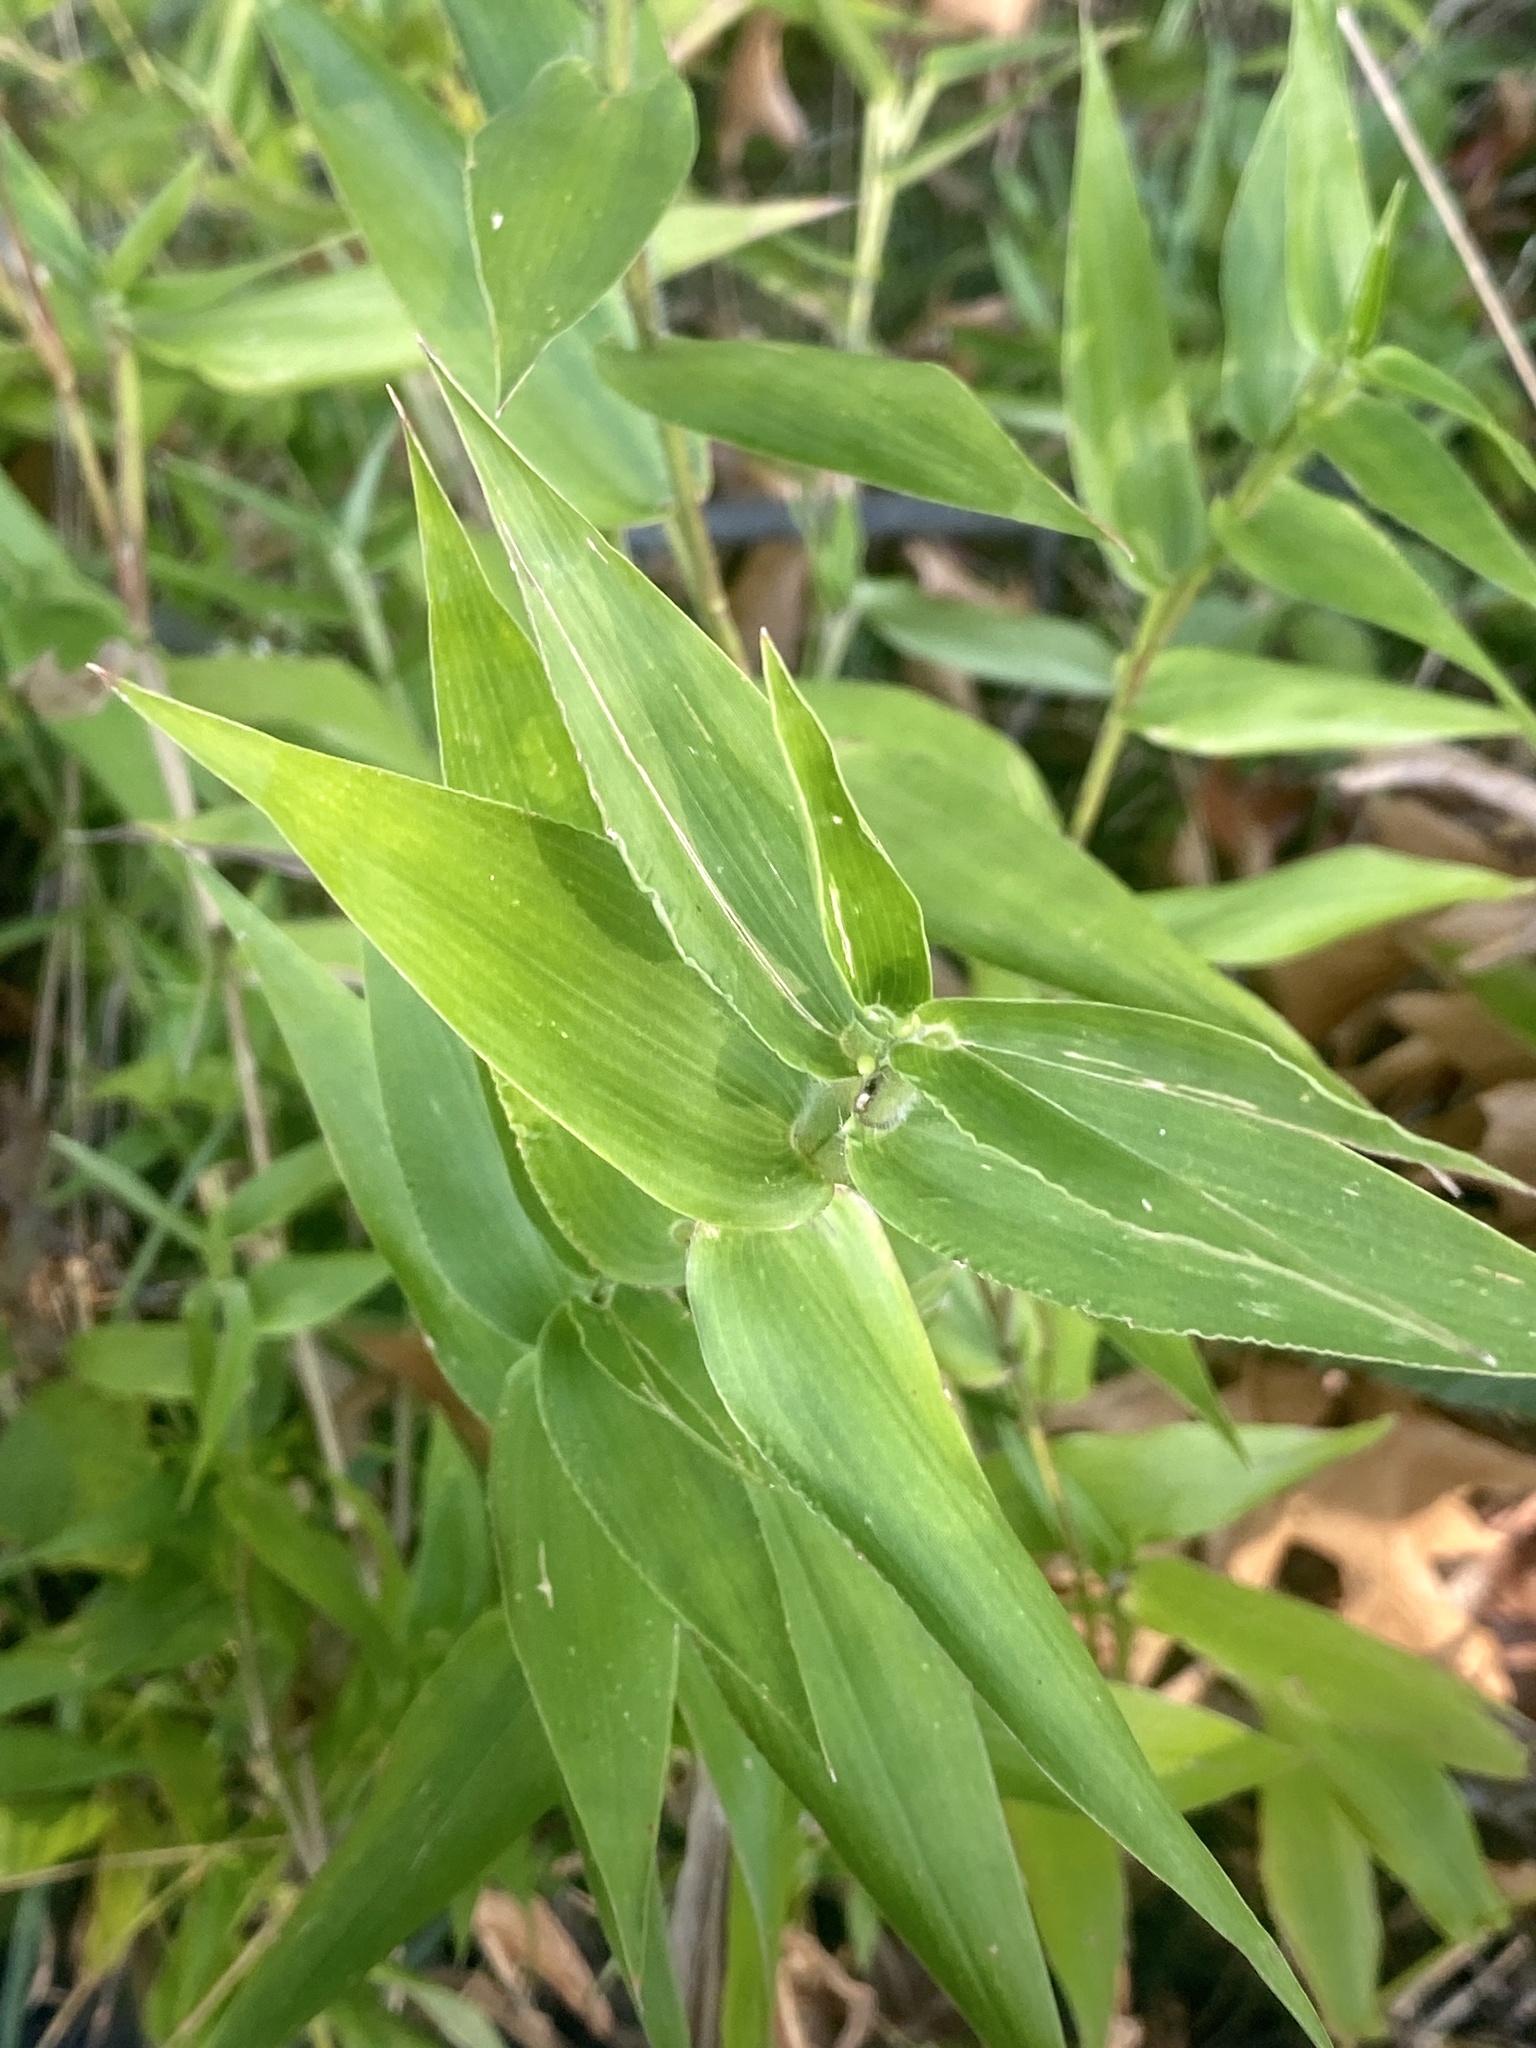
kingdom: Plantae
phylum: Tracheophyta
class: Liliopsida
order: Poales
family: Poaceae
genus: Dichanthelium
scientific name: Dichanthelium clandestinum
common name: Deer-tongue grass
